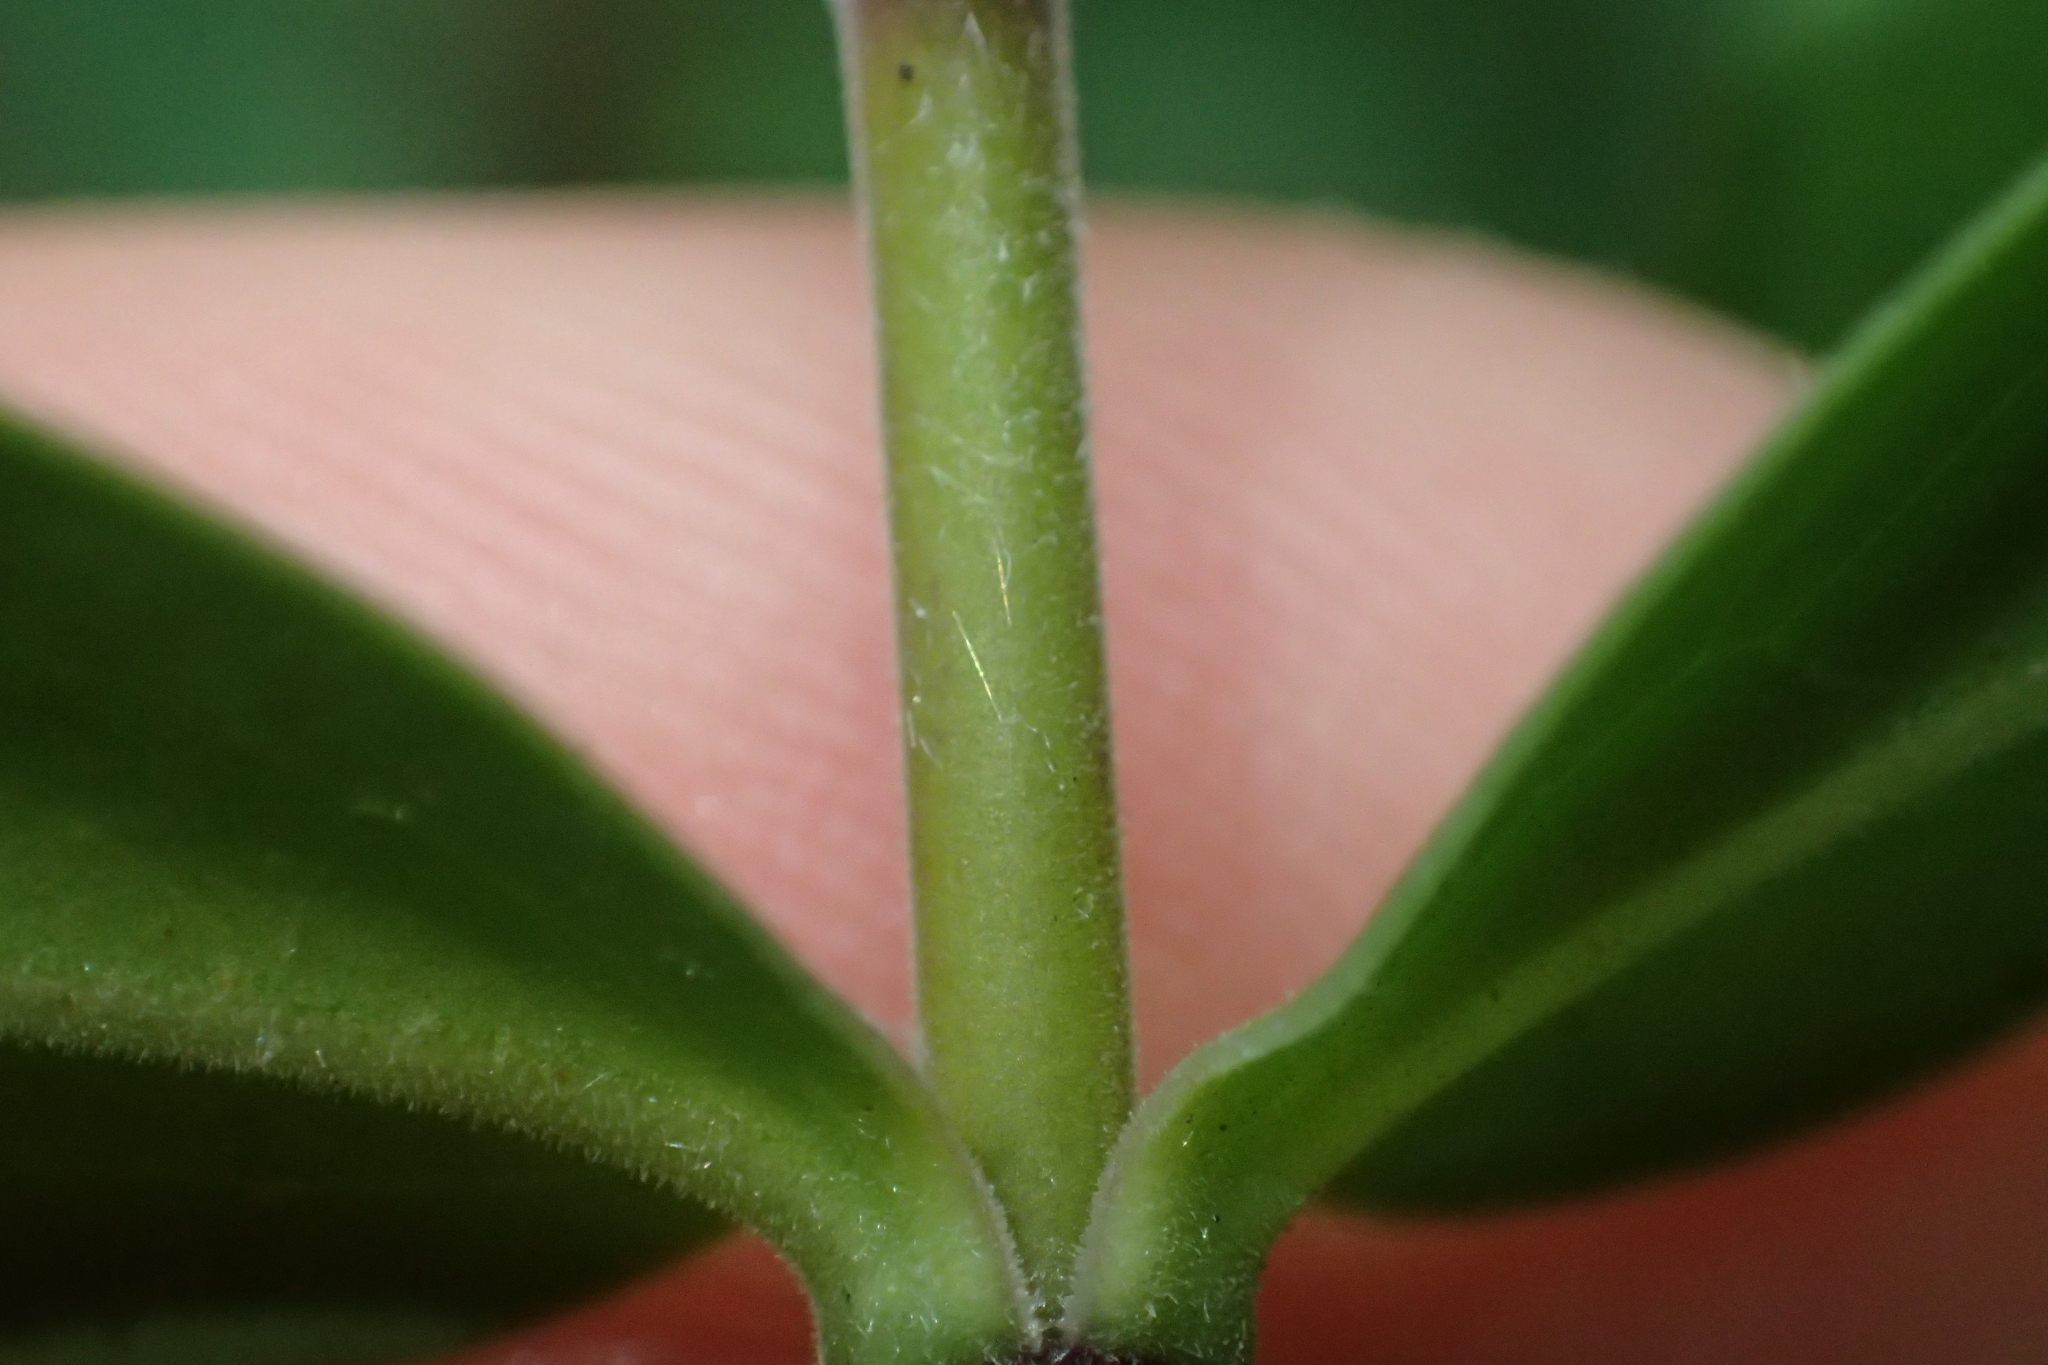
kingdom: Plantae
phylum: Tracheophyta
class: Magnoliopsida
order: Lamiales
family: Plantaginaceae
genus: Veronica
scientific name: Veronica pubescens
